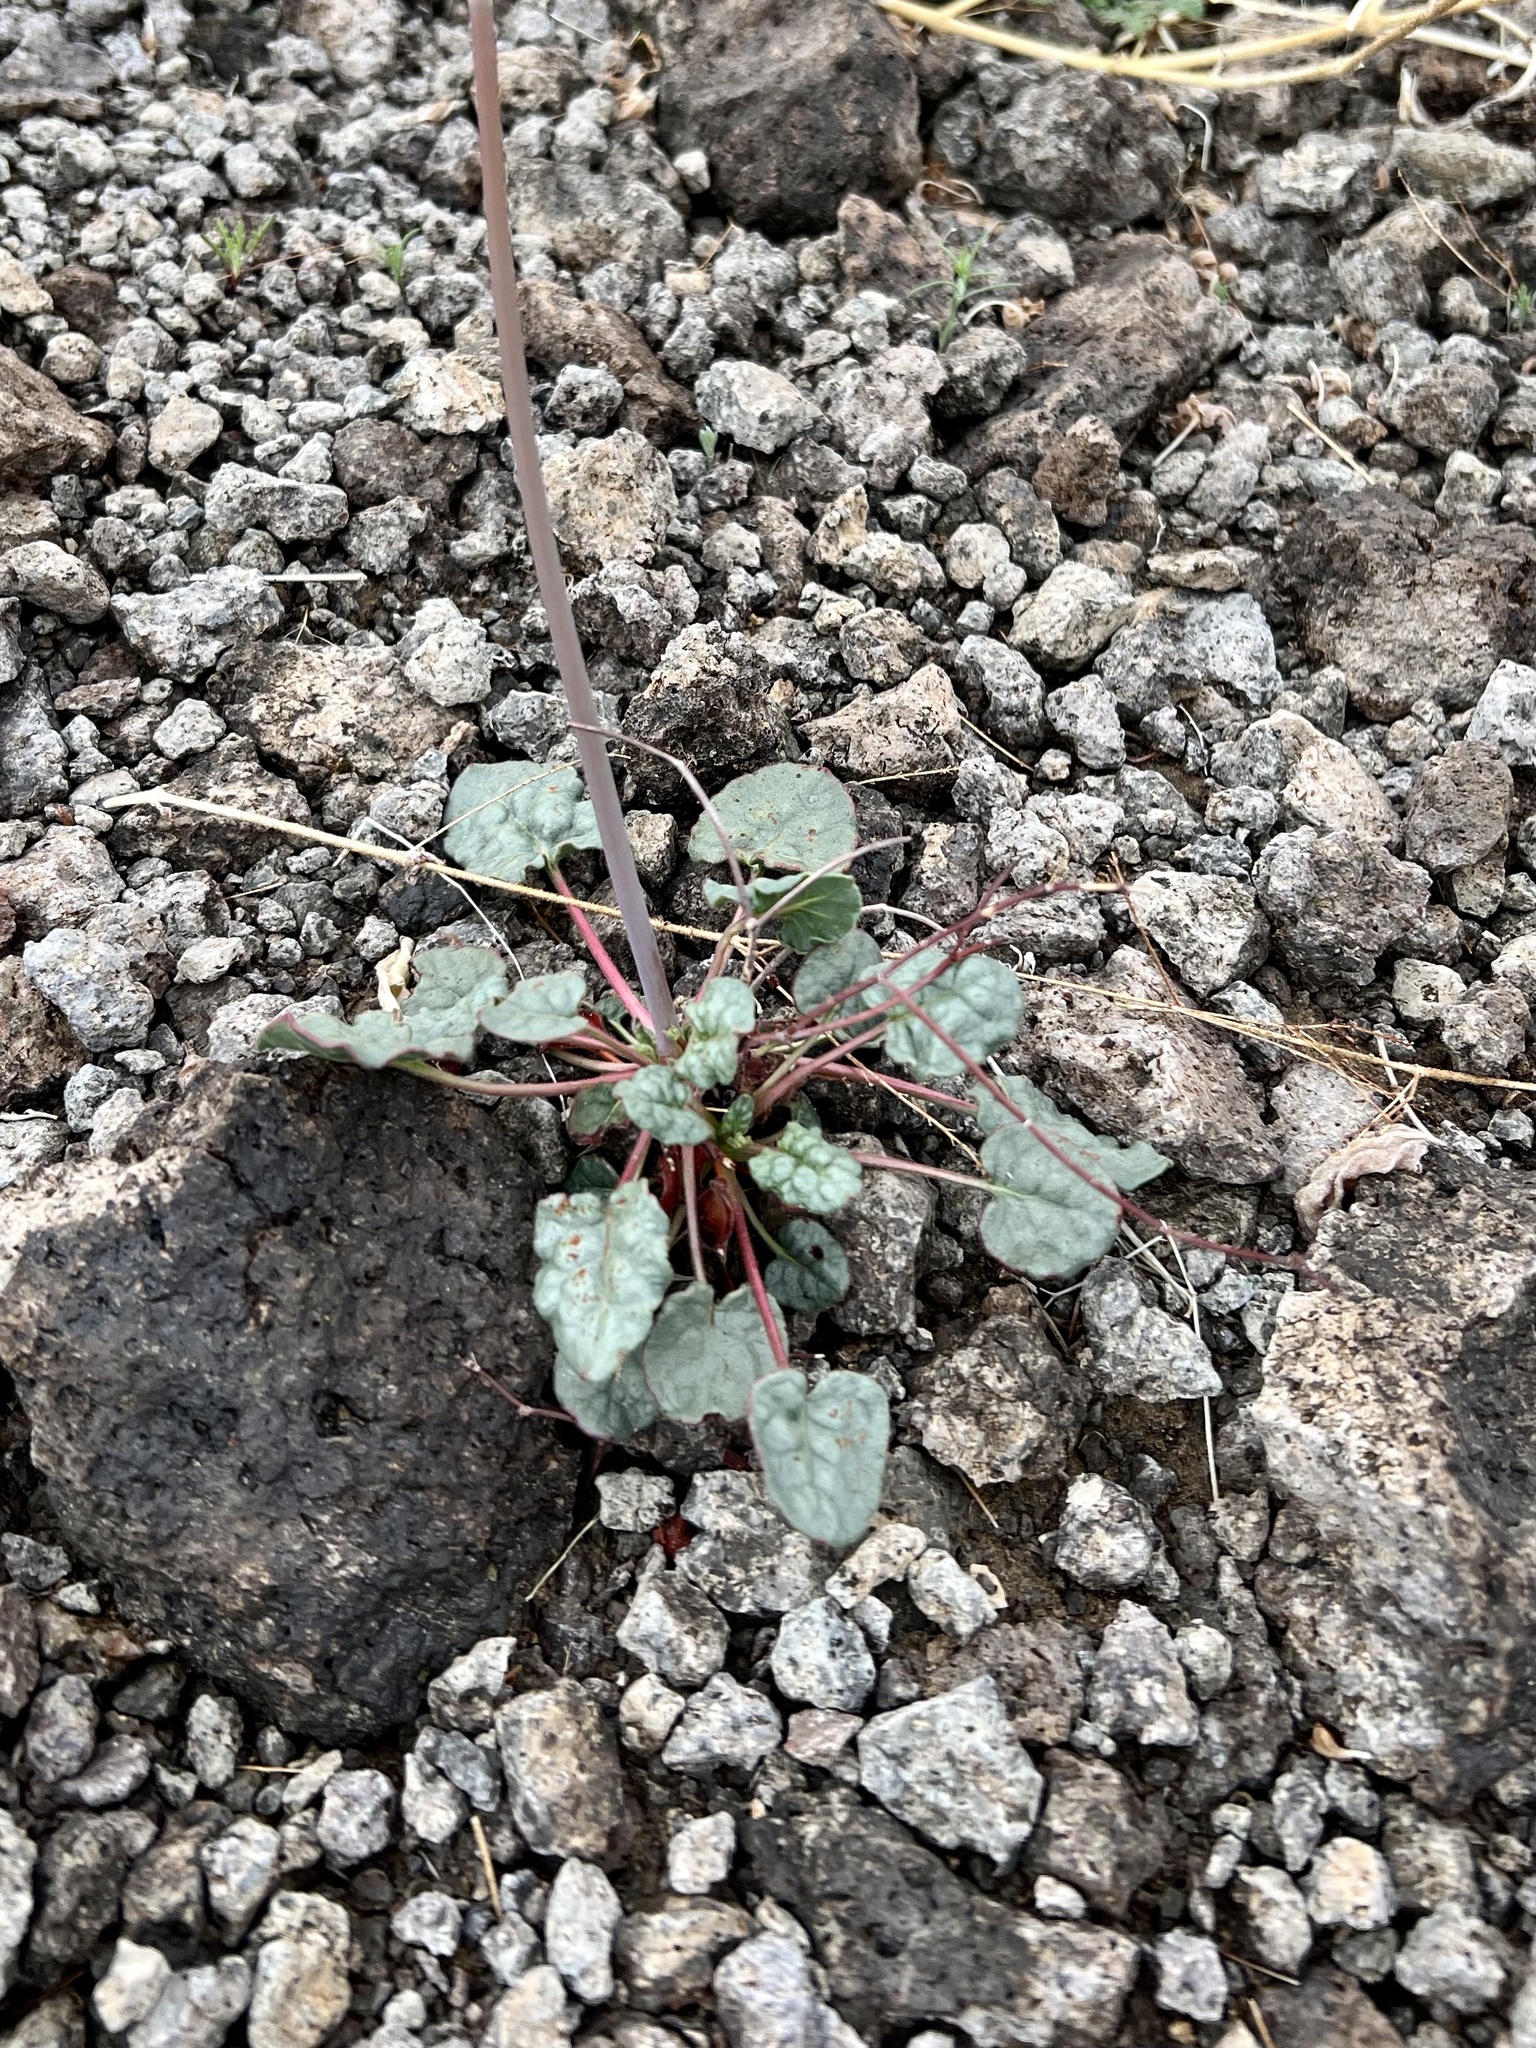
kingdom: Plantae
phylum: Tracheophyta
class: Magnoliopsida
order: Caryophyllales
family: Polygonaceae
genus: Eriogonum
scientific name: Eriogonum inflatum
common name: Desert trumpet
